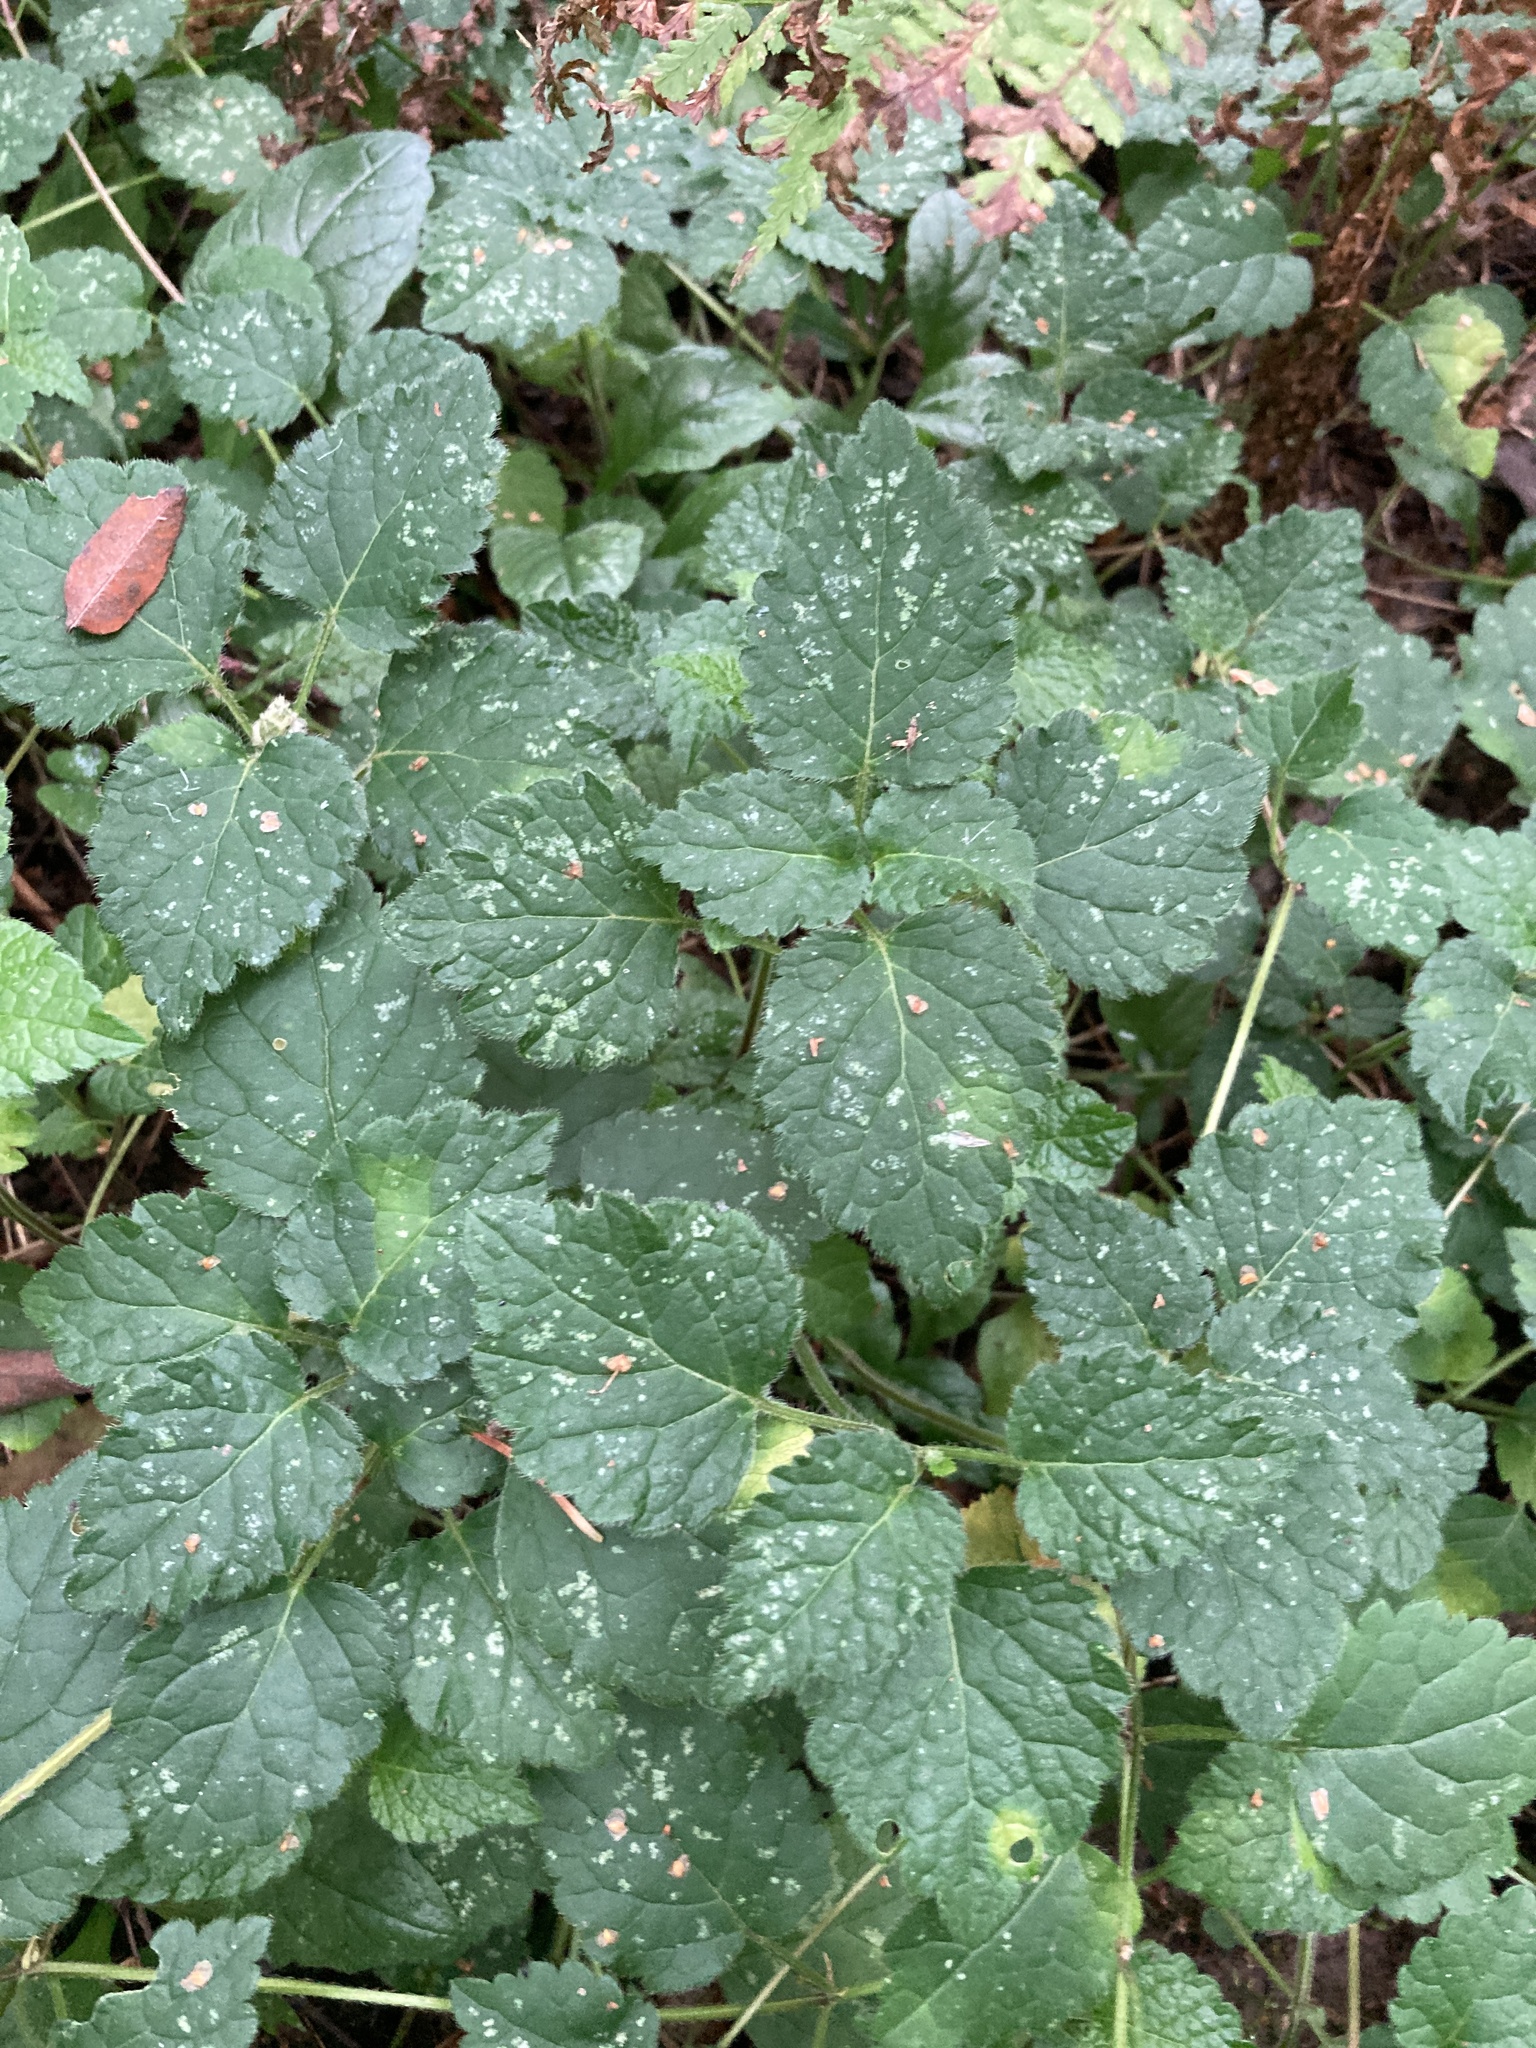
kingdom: Plantae
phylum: Tracheophyta
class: Magnoliopsida
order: Lamiales
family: Lamiaceae
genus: Lamium
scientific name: Lamium galeobdolon
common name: Yellow archangel
